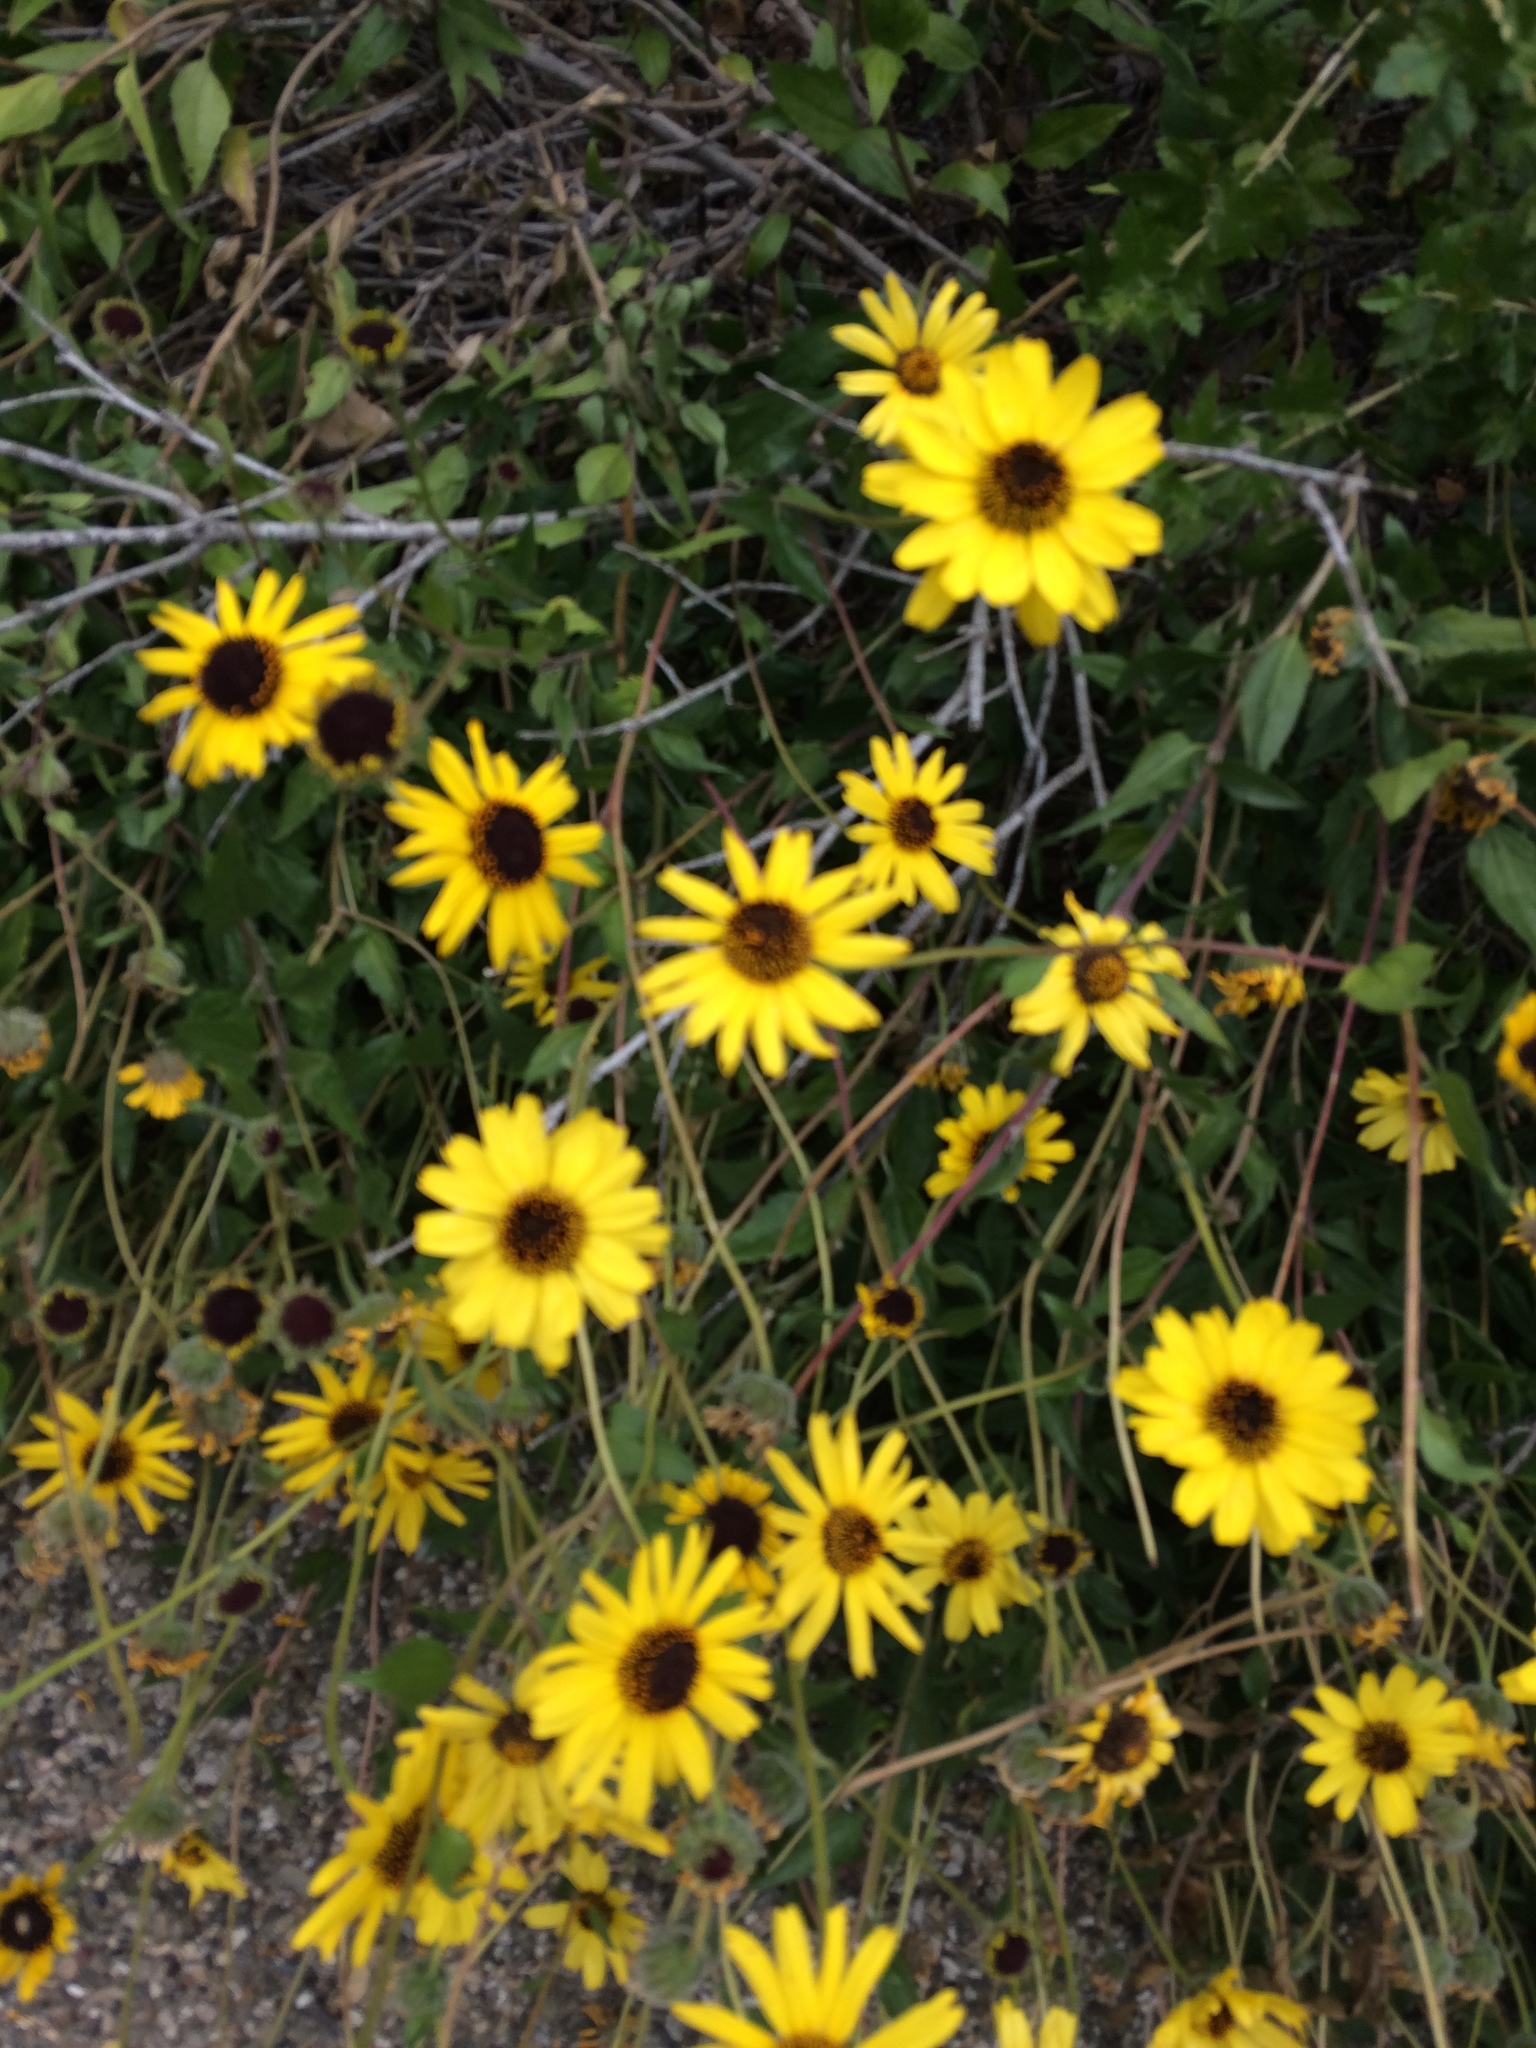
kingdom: Plantae
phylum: Tracheophyta
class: Magnoliopsida
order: Asterales
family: Asteraceae
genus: Encelia
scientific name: Encelia californica
